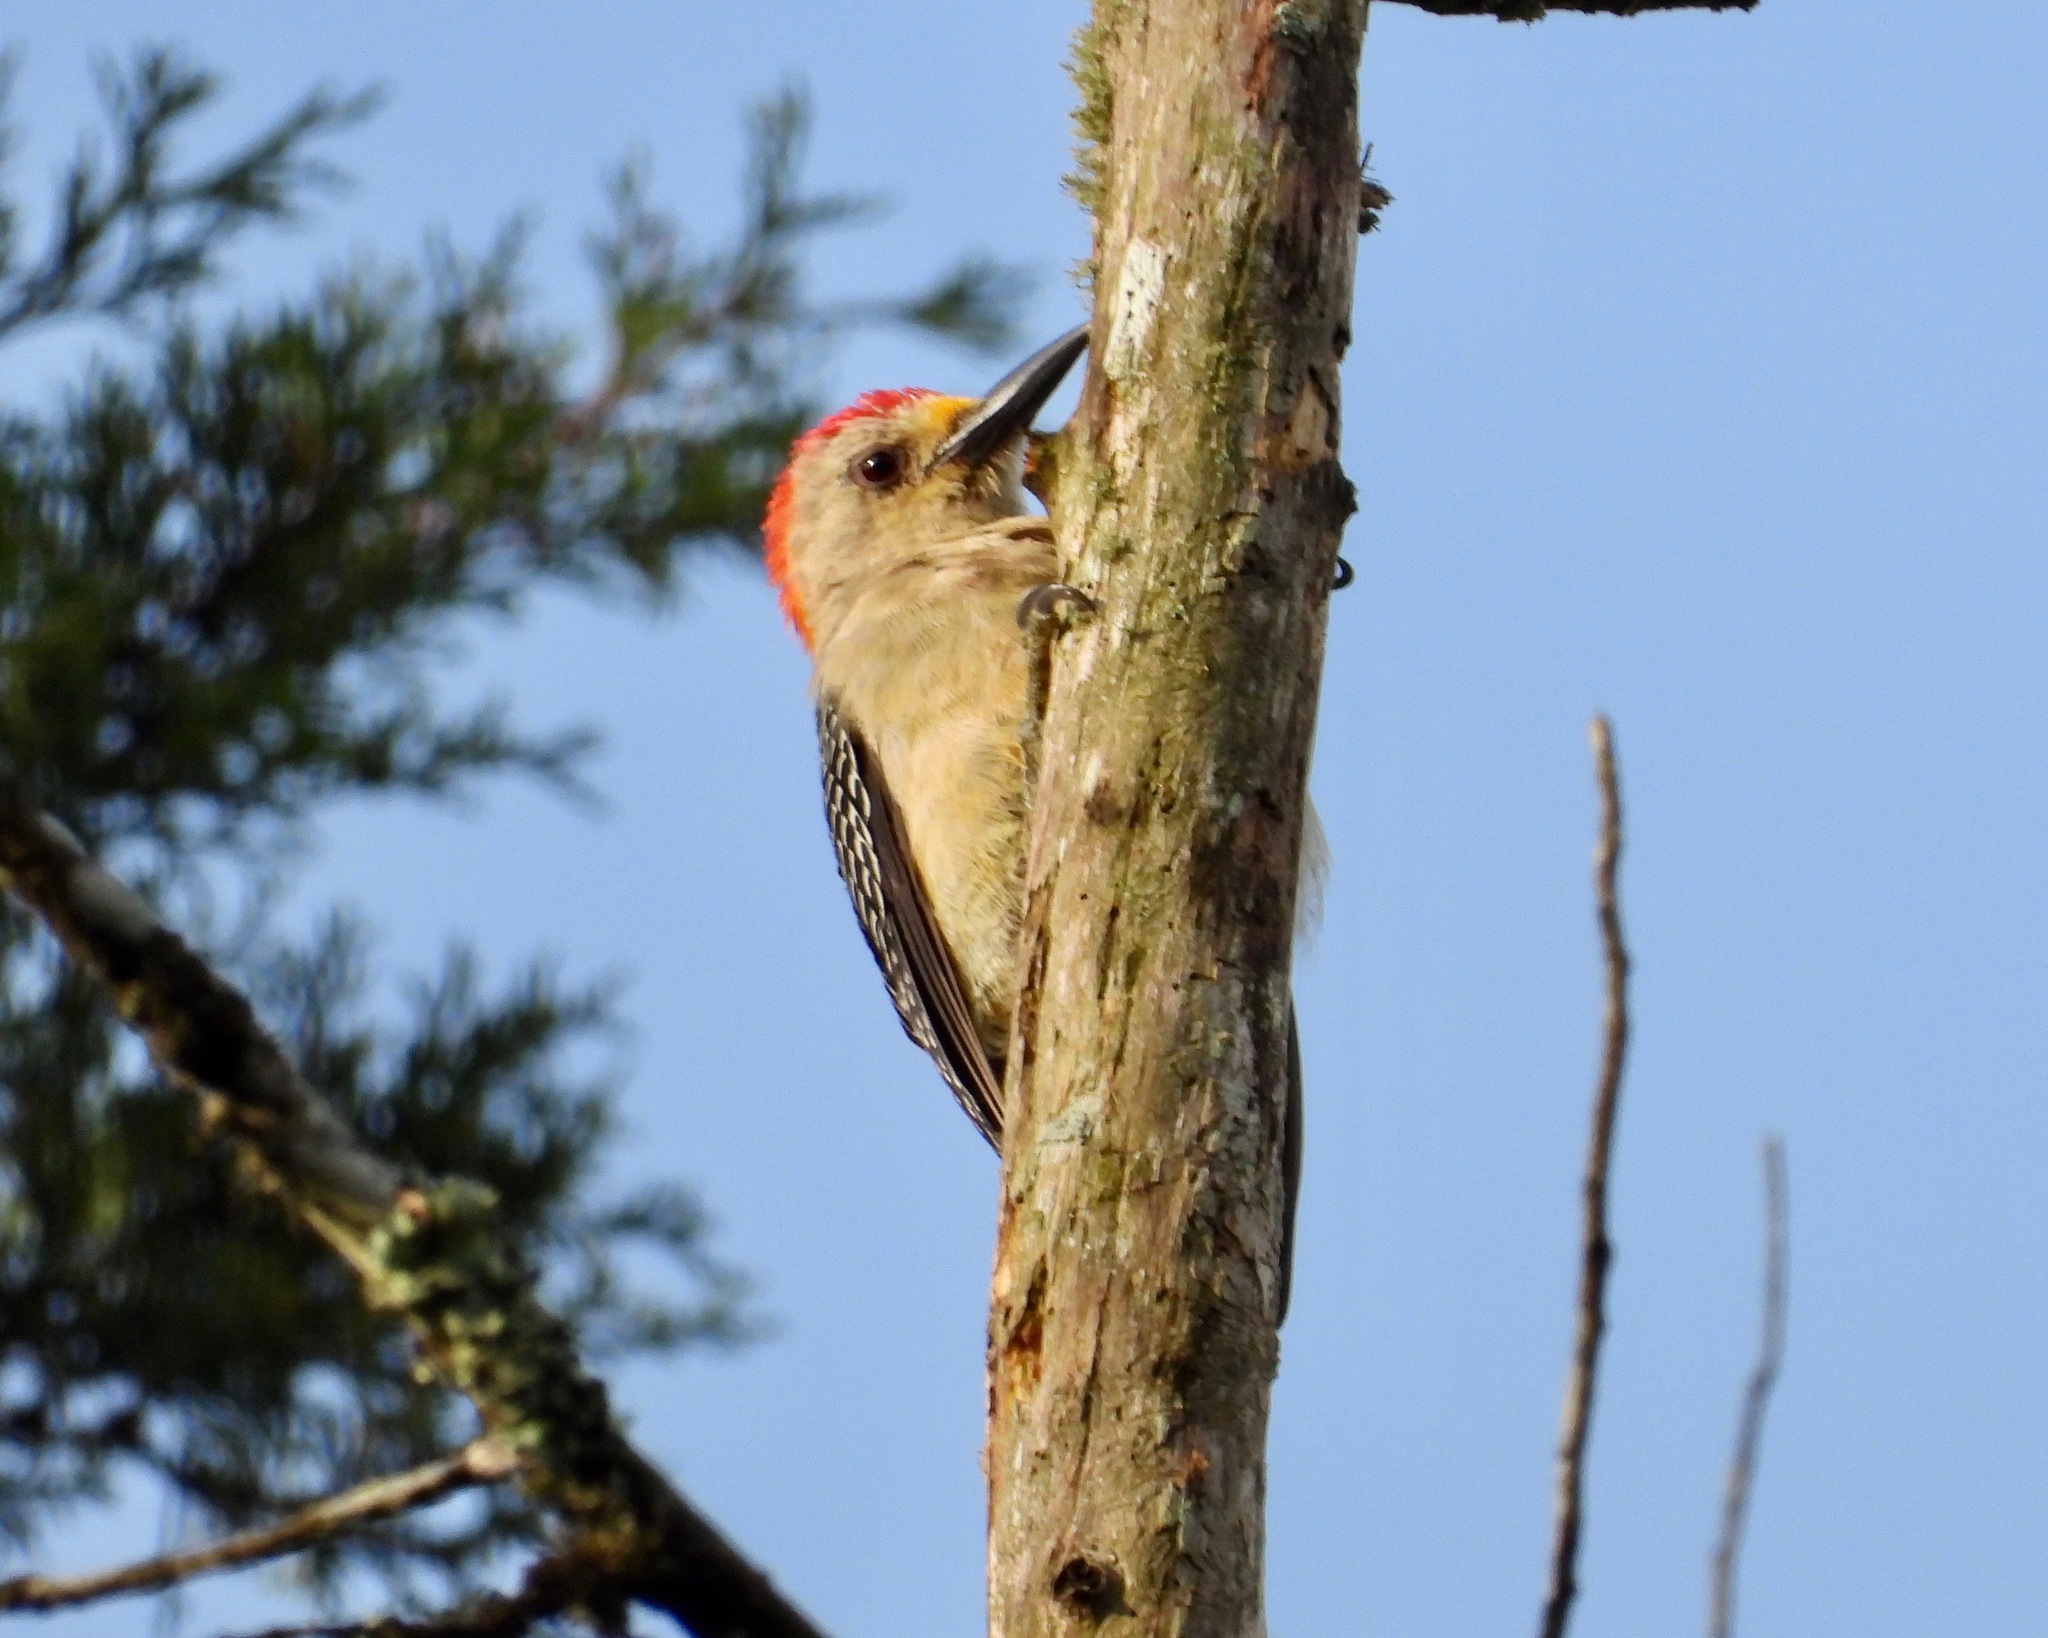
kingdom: Animalia
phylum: Chordata
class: Aves
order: Piciformes
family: Picidae
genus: Melanerpes
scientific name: Melanerpes aurifrons
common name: Golden-fronted woodpecker
